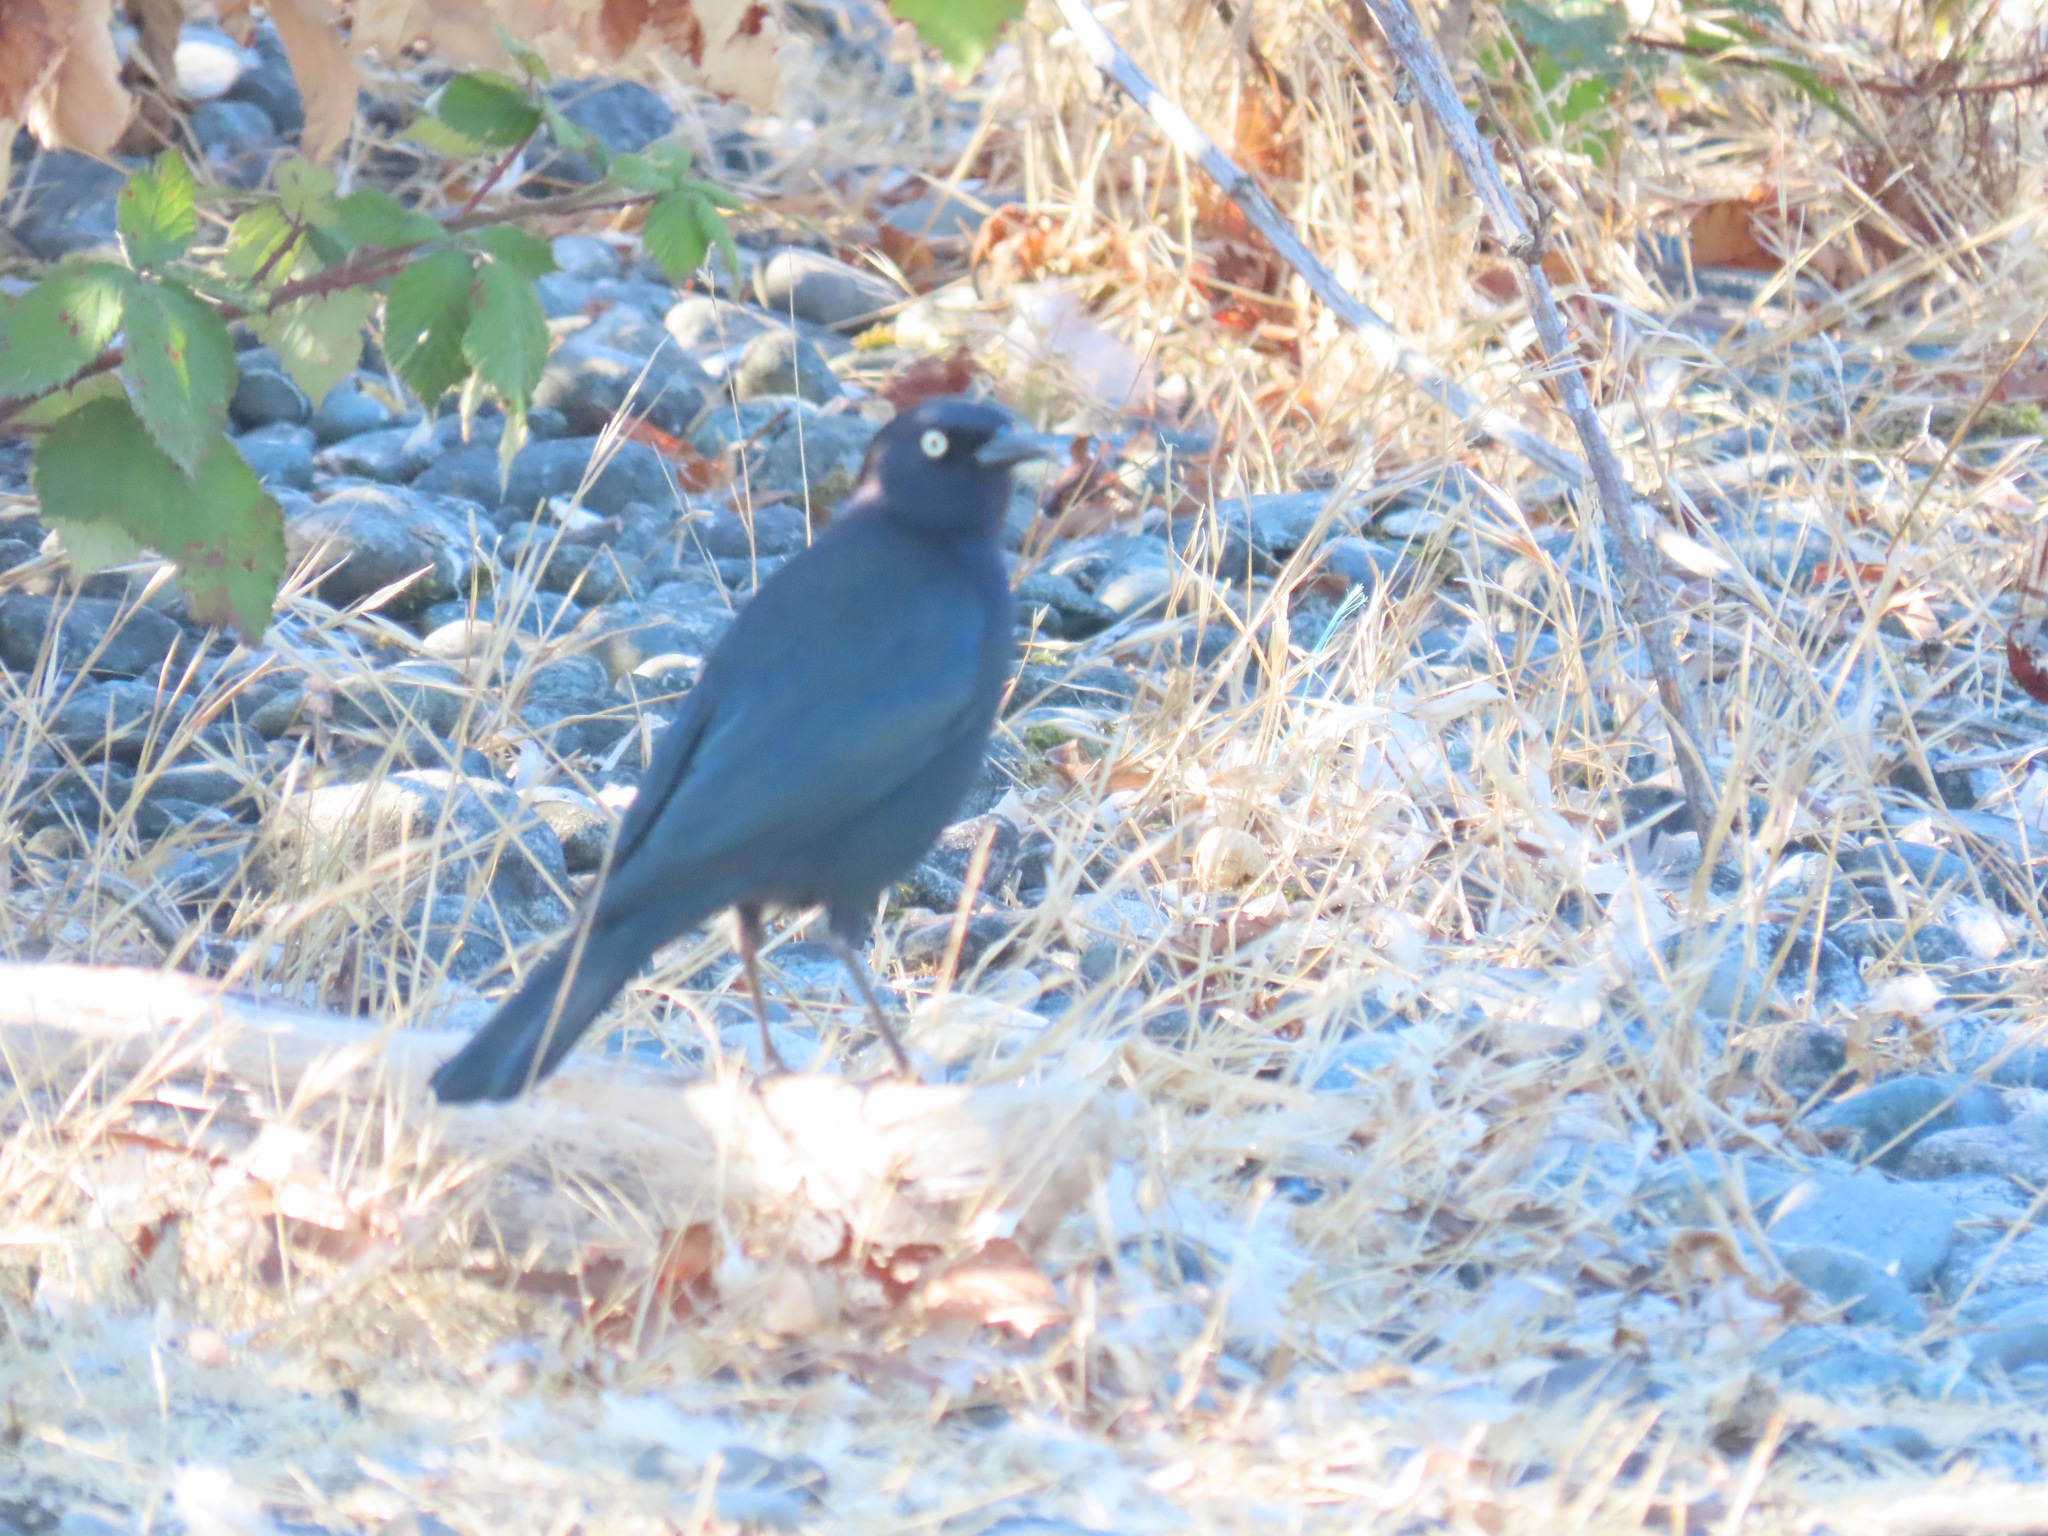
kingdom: Animalia
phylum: Chordata
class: Aves
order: Passeriformes
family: Icteridae
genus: Euphagus
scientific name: Euphagus cyanocephalus
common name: Brewer's blackbird
